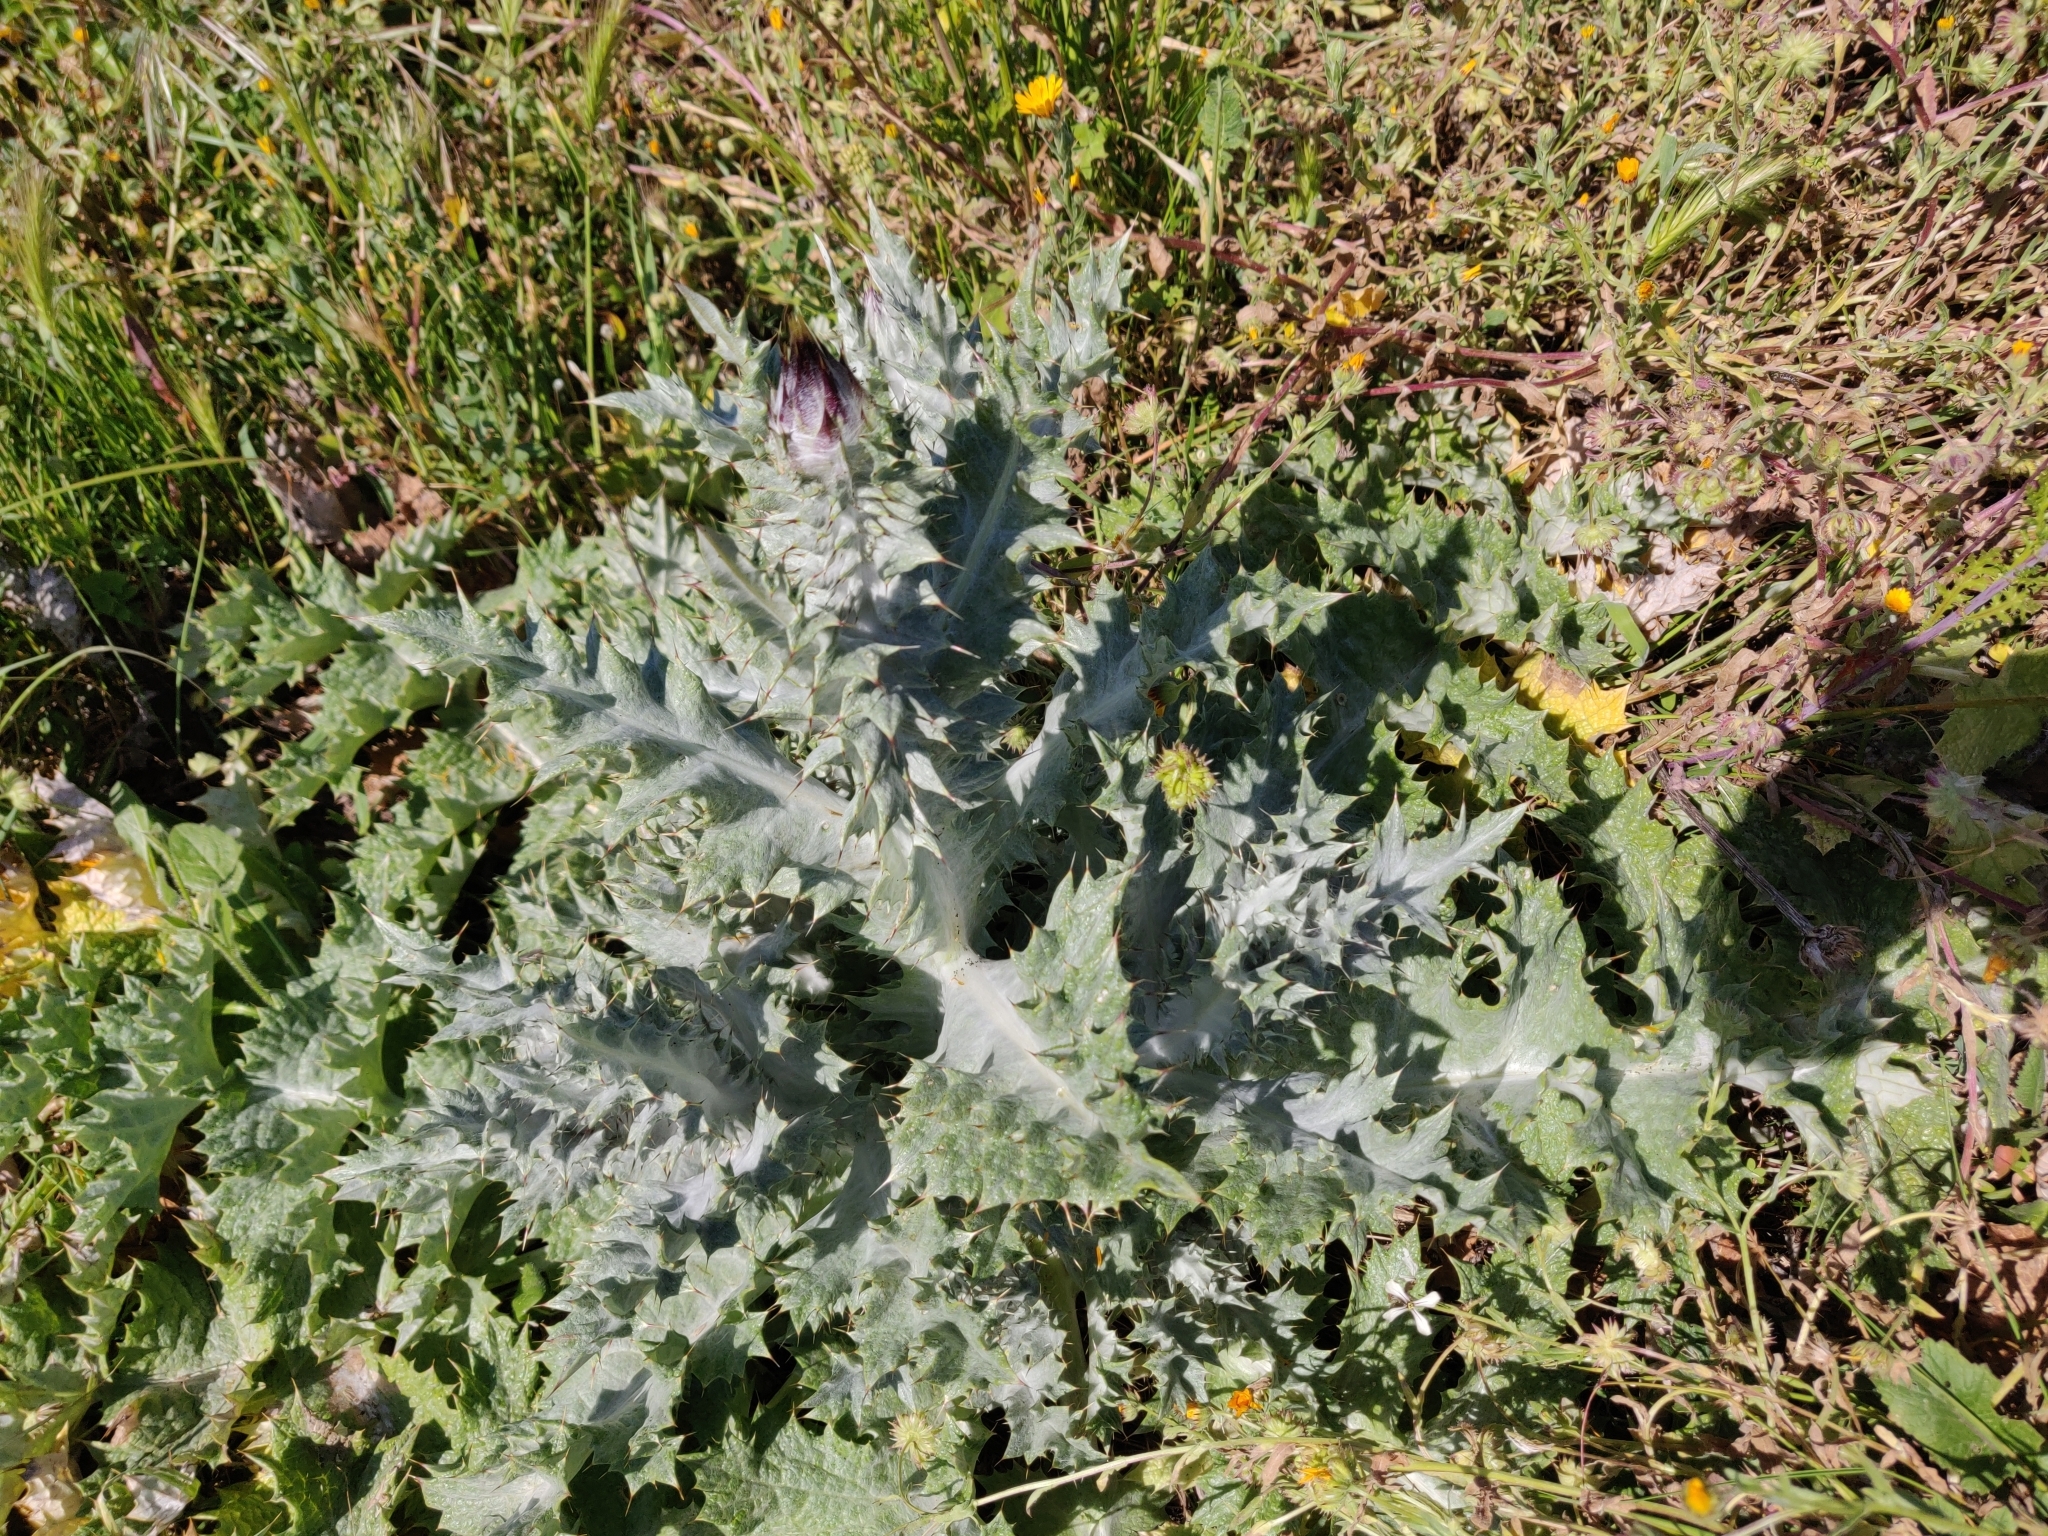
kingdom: Plantae
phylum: Tracheophyta
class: Magnoliopsida
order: Asterales
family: Asteraceae
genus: Onopordum
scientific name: Onopordum illyricum
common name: Illyrian thistle
